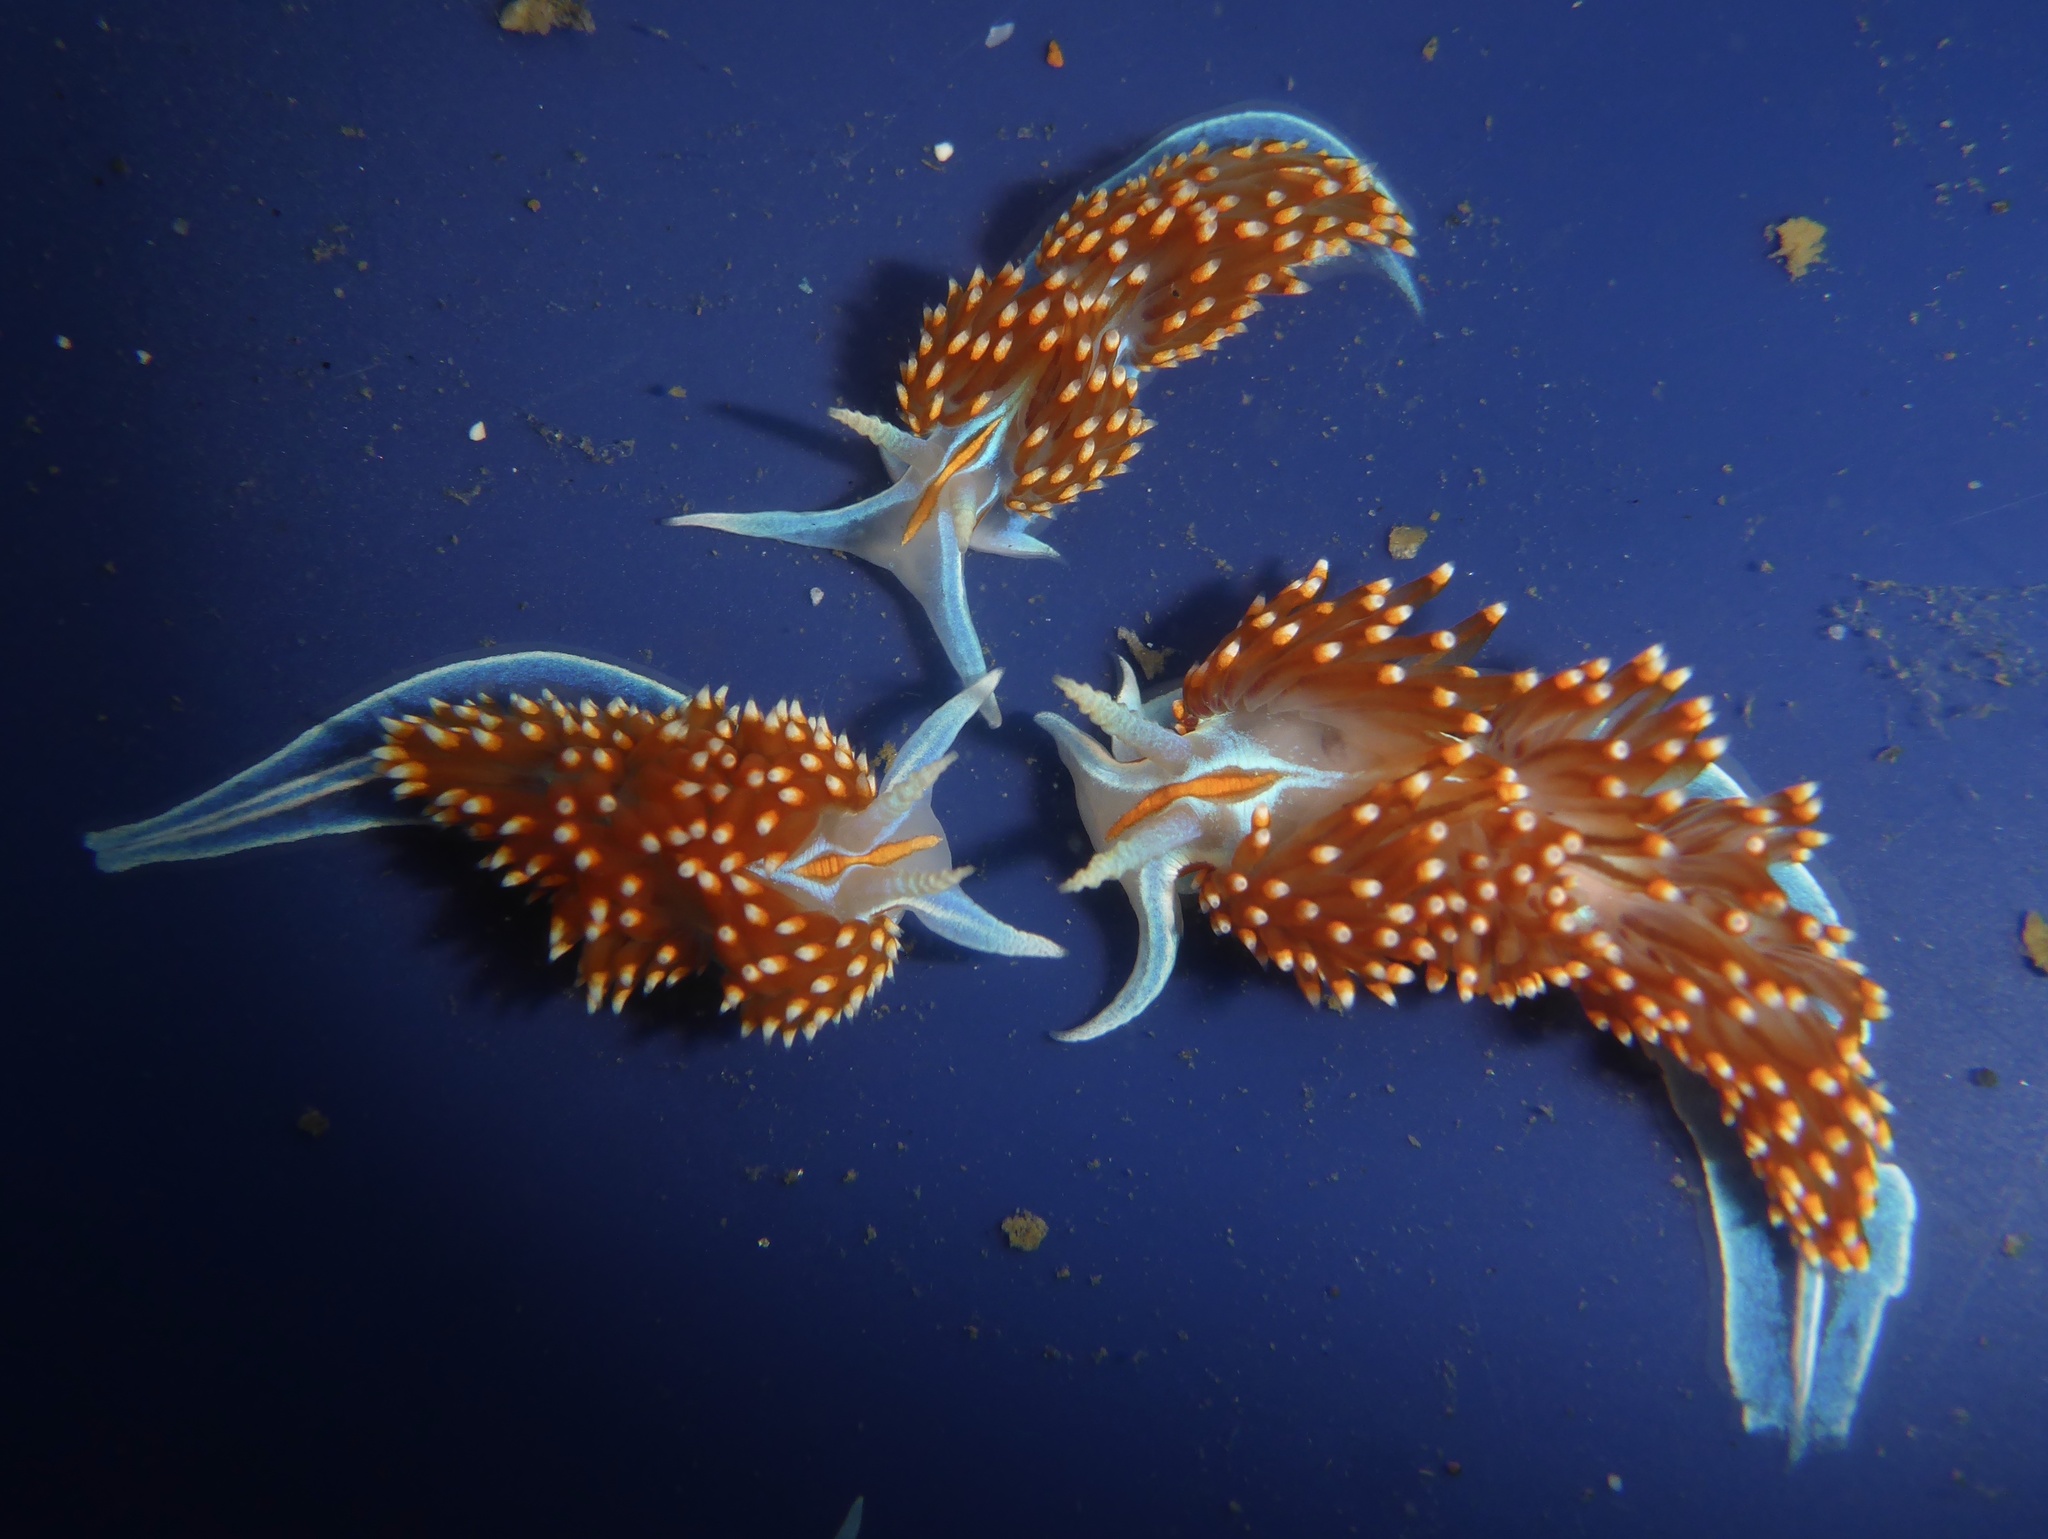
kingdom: Animalia
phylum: Mollusca
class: Gastropoda
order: Nudibranchia
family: Myrrhinidae
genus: Hermissenda
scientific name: Hermissenda opalescens
